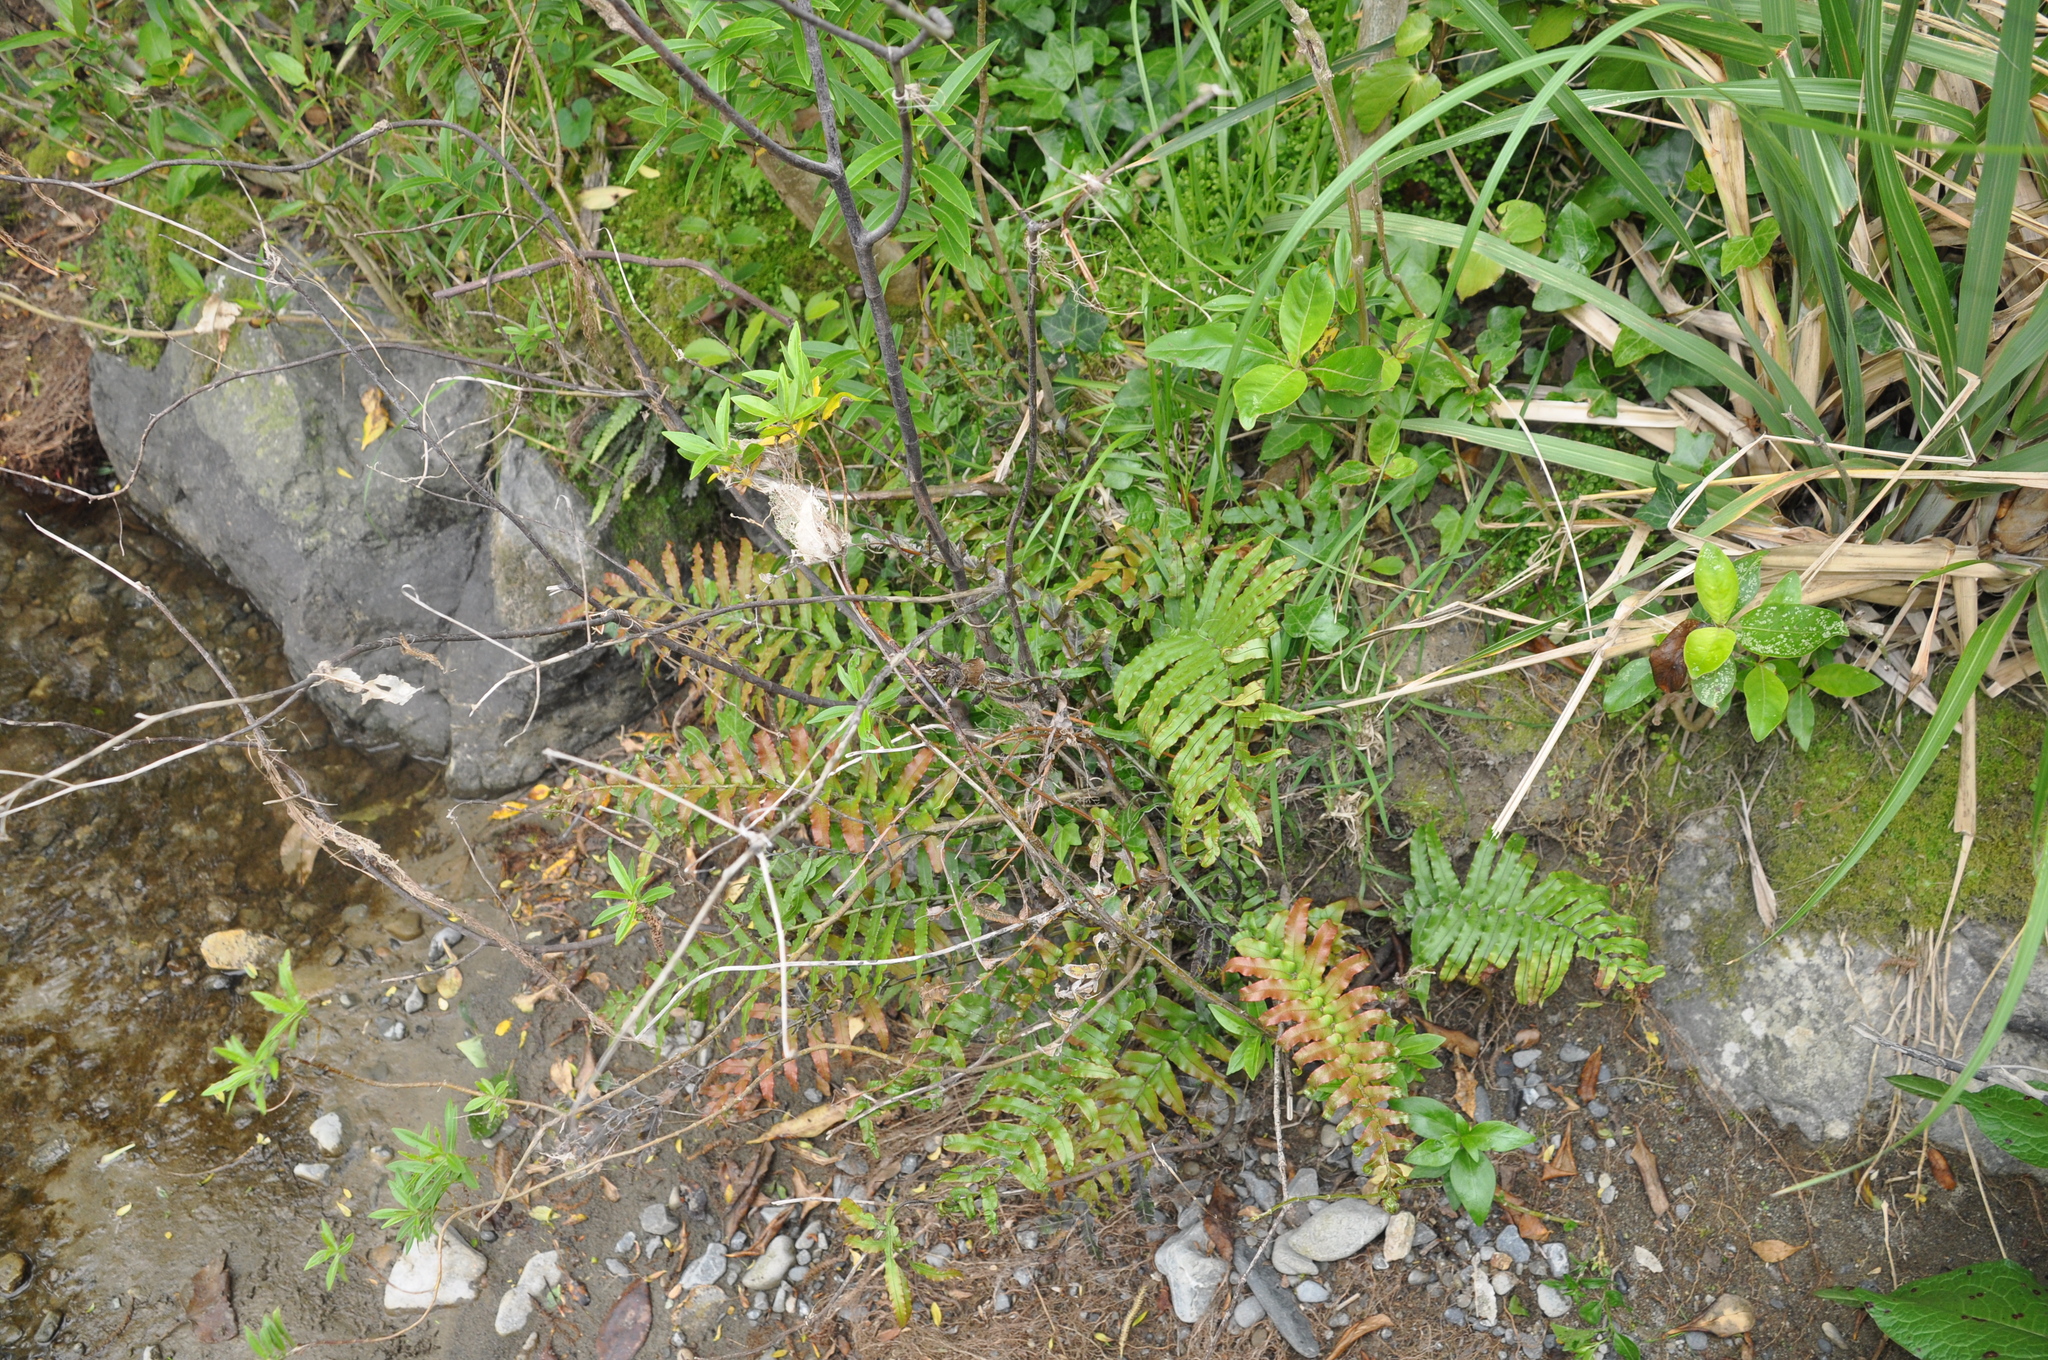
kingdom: Plantae
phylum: Tracheophyta
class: Polypodiopsida
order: Polypodiales
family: Blechnaceae
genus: Parablechnum
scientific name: Parablechnum novae-zelandiae
